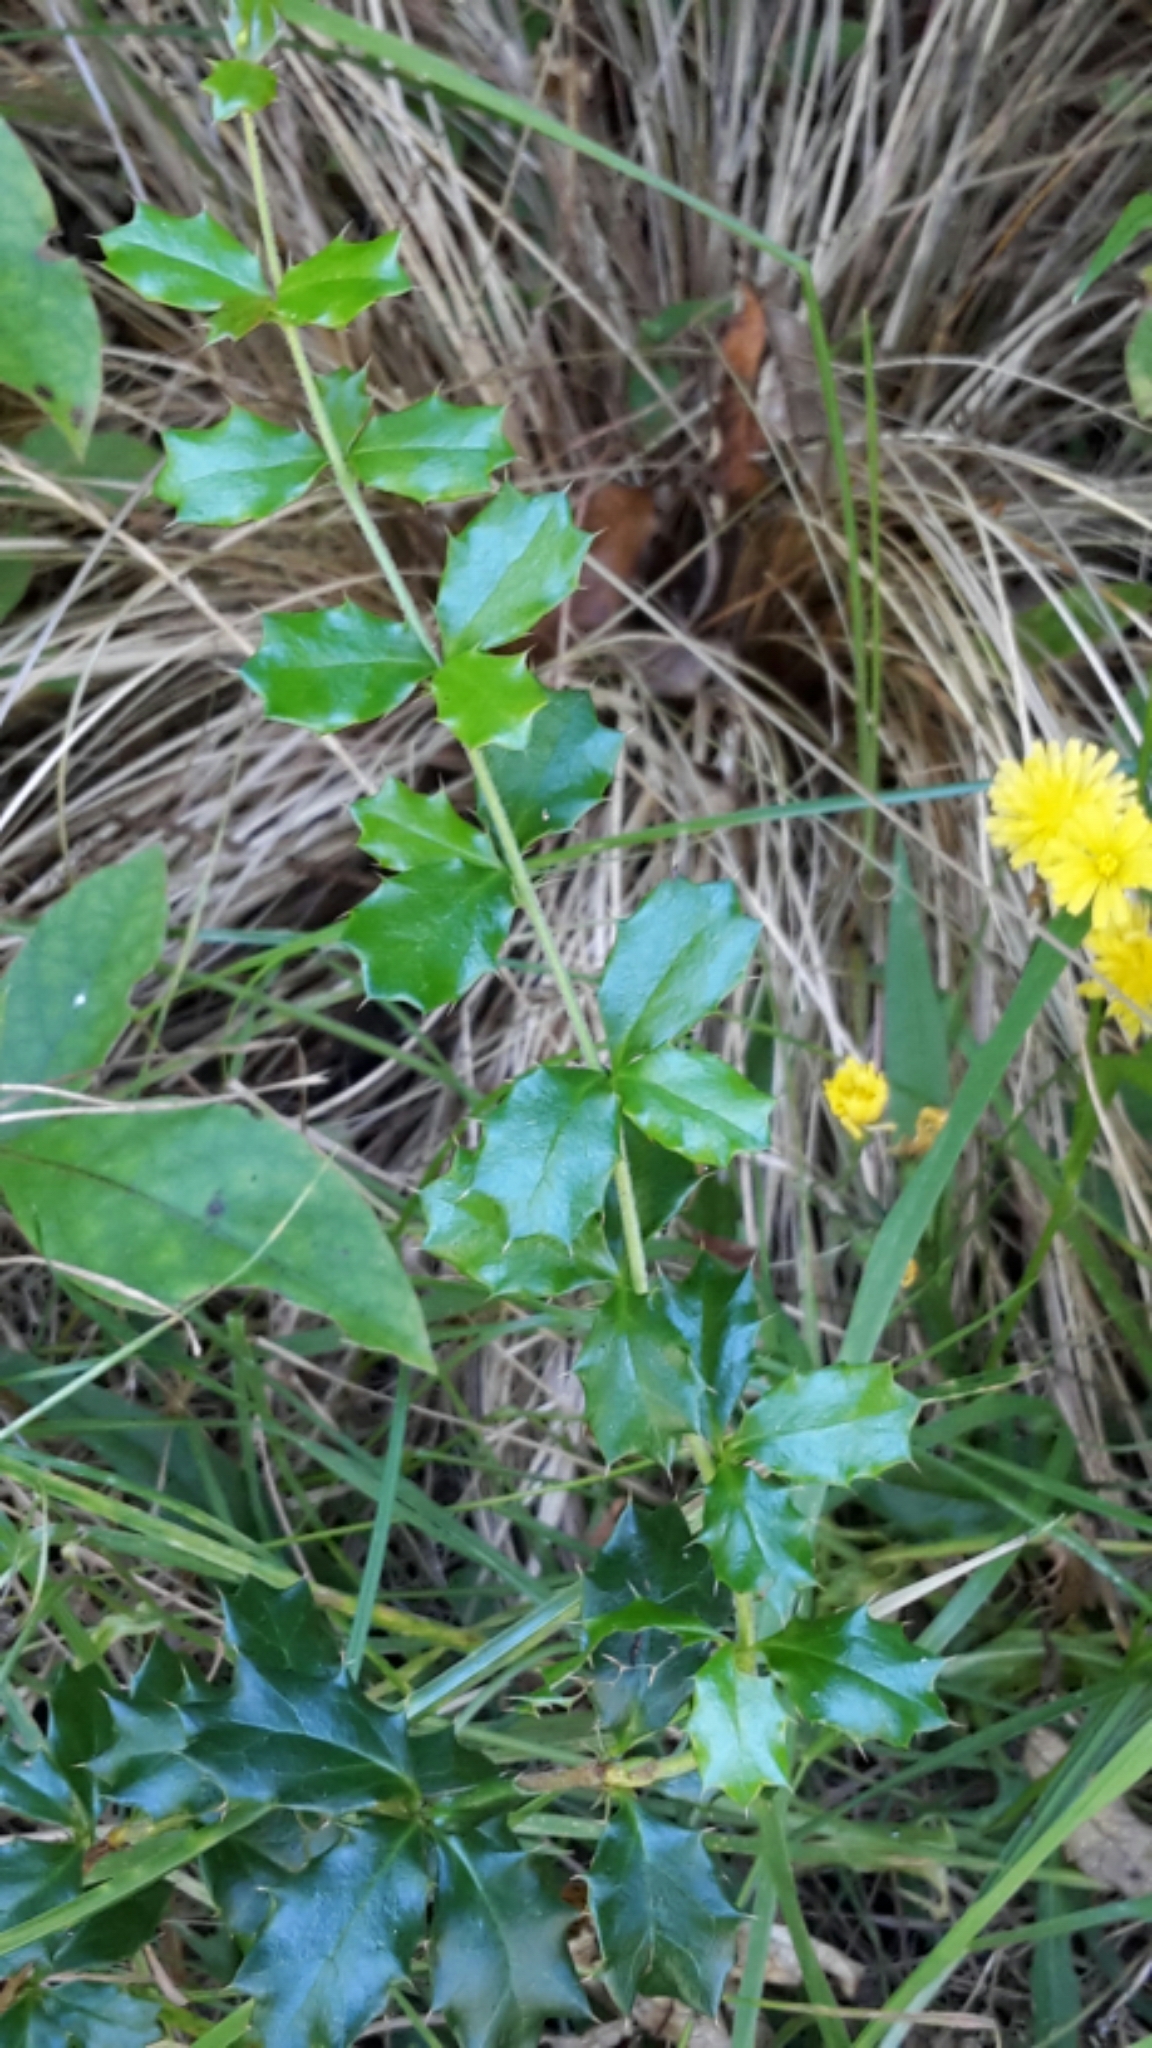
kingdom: Plantae
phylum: Tracheophyta
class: Magnoliopsida
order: Ranunculales
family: Berberidaceae
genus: Berberis
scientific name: Berberis darwinii
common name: Darwin's barberry
